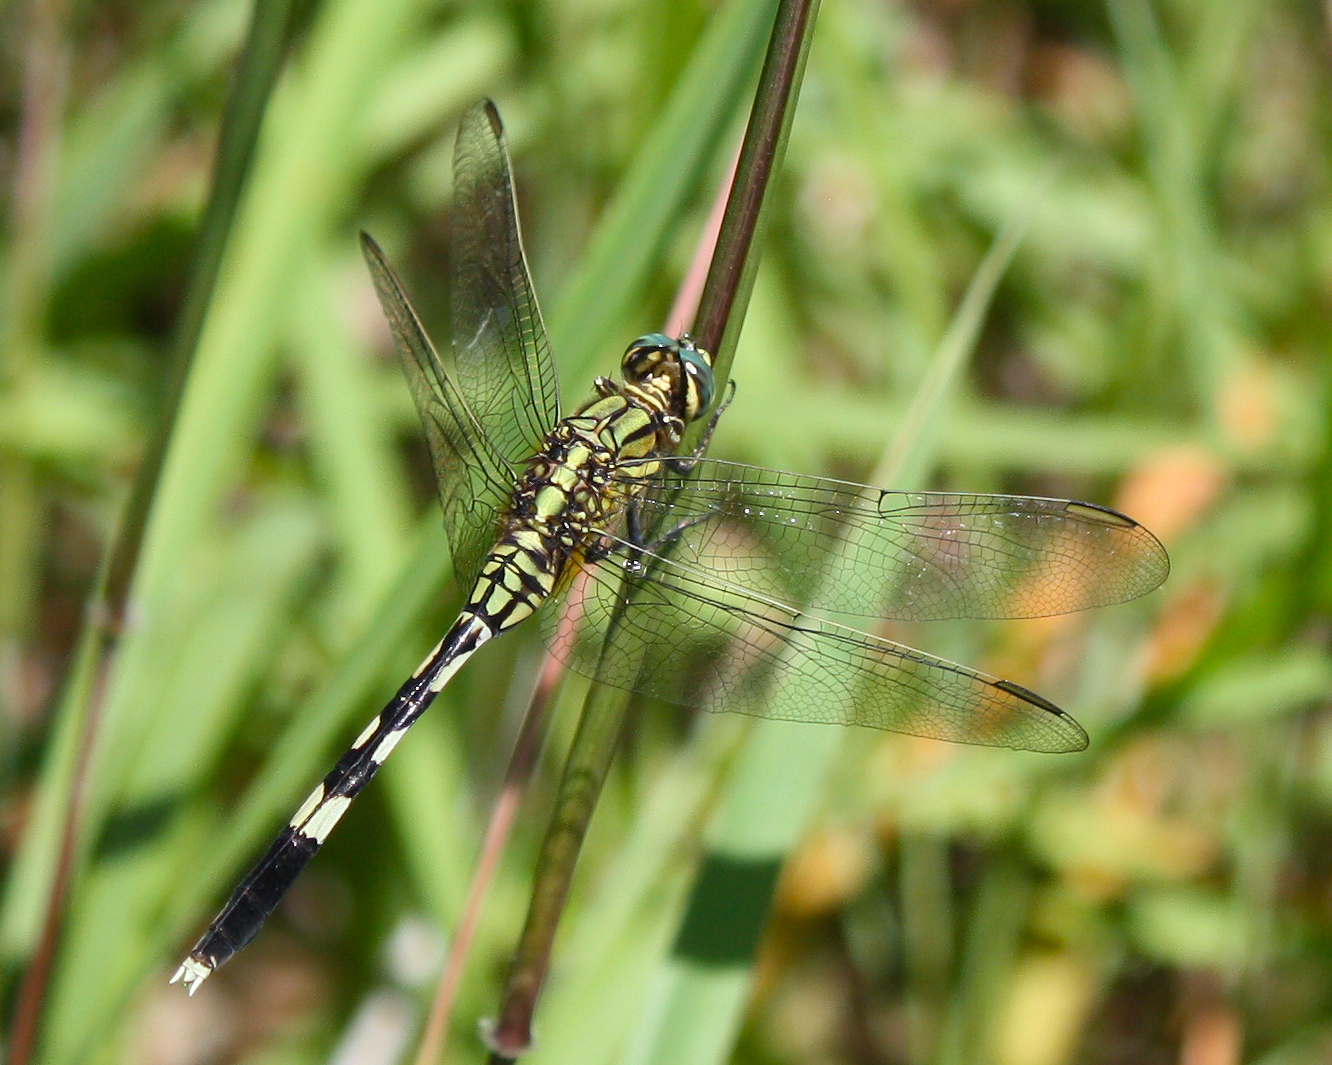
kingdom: Animalia
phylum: Arthropoda
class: Insecta
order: Odonata
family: Libellulidae
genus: Orthetrum
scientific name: Orthetrum sabina
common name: Slender skimmer
